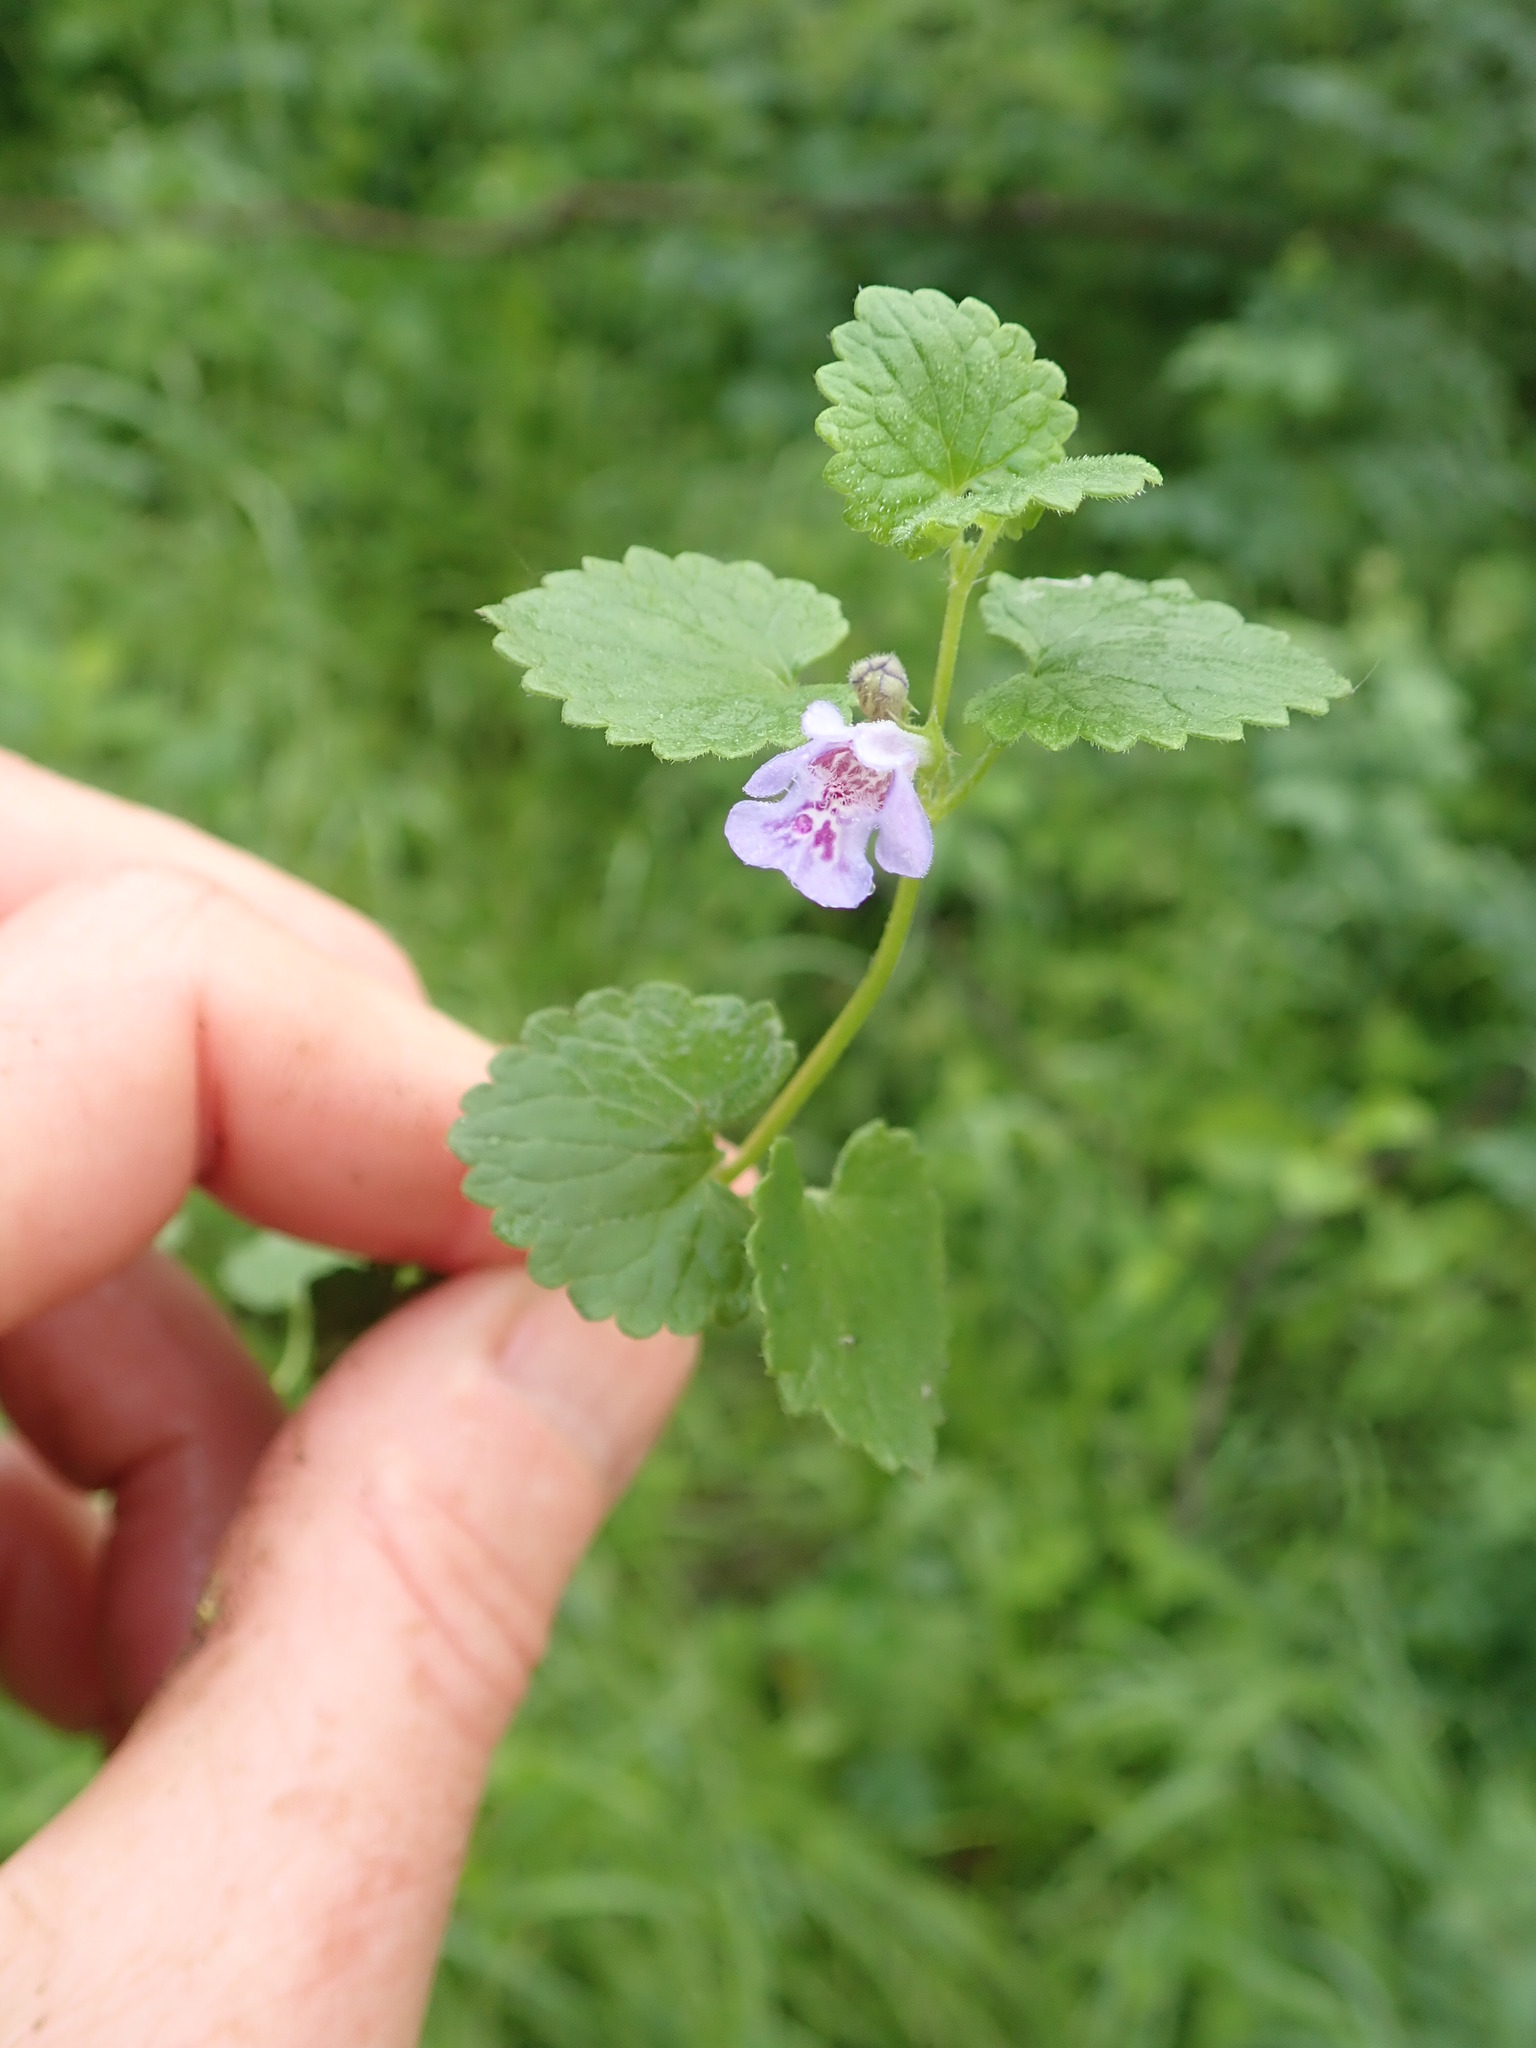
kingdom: Plantae
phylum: Tracheophyta
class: Magnoliopsida
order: Lamiales
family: Lamiaceae
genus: Glechoma
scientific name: Glechoma hederacea
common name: Ground ivy
